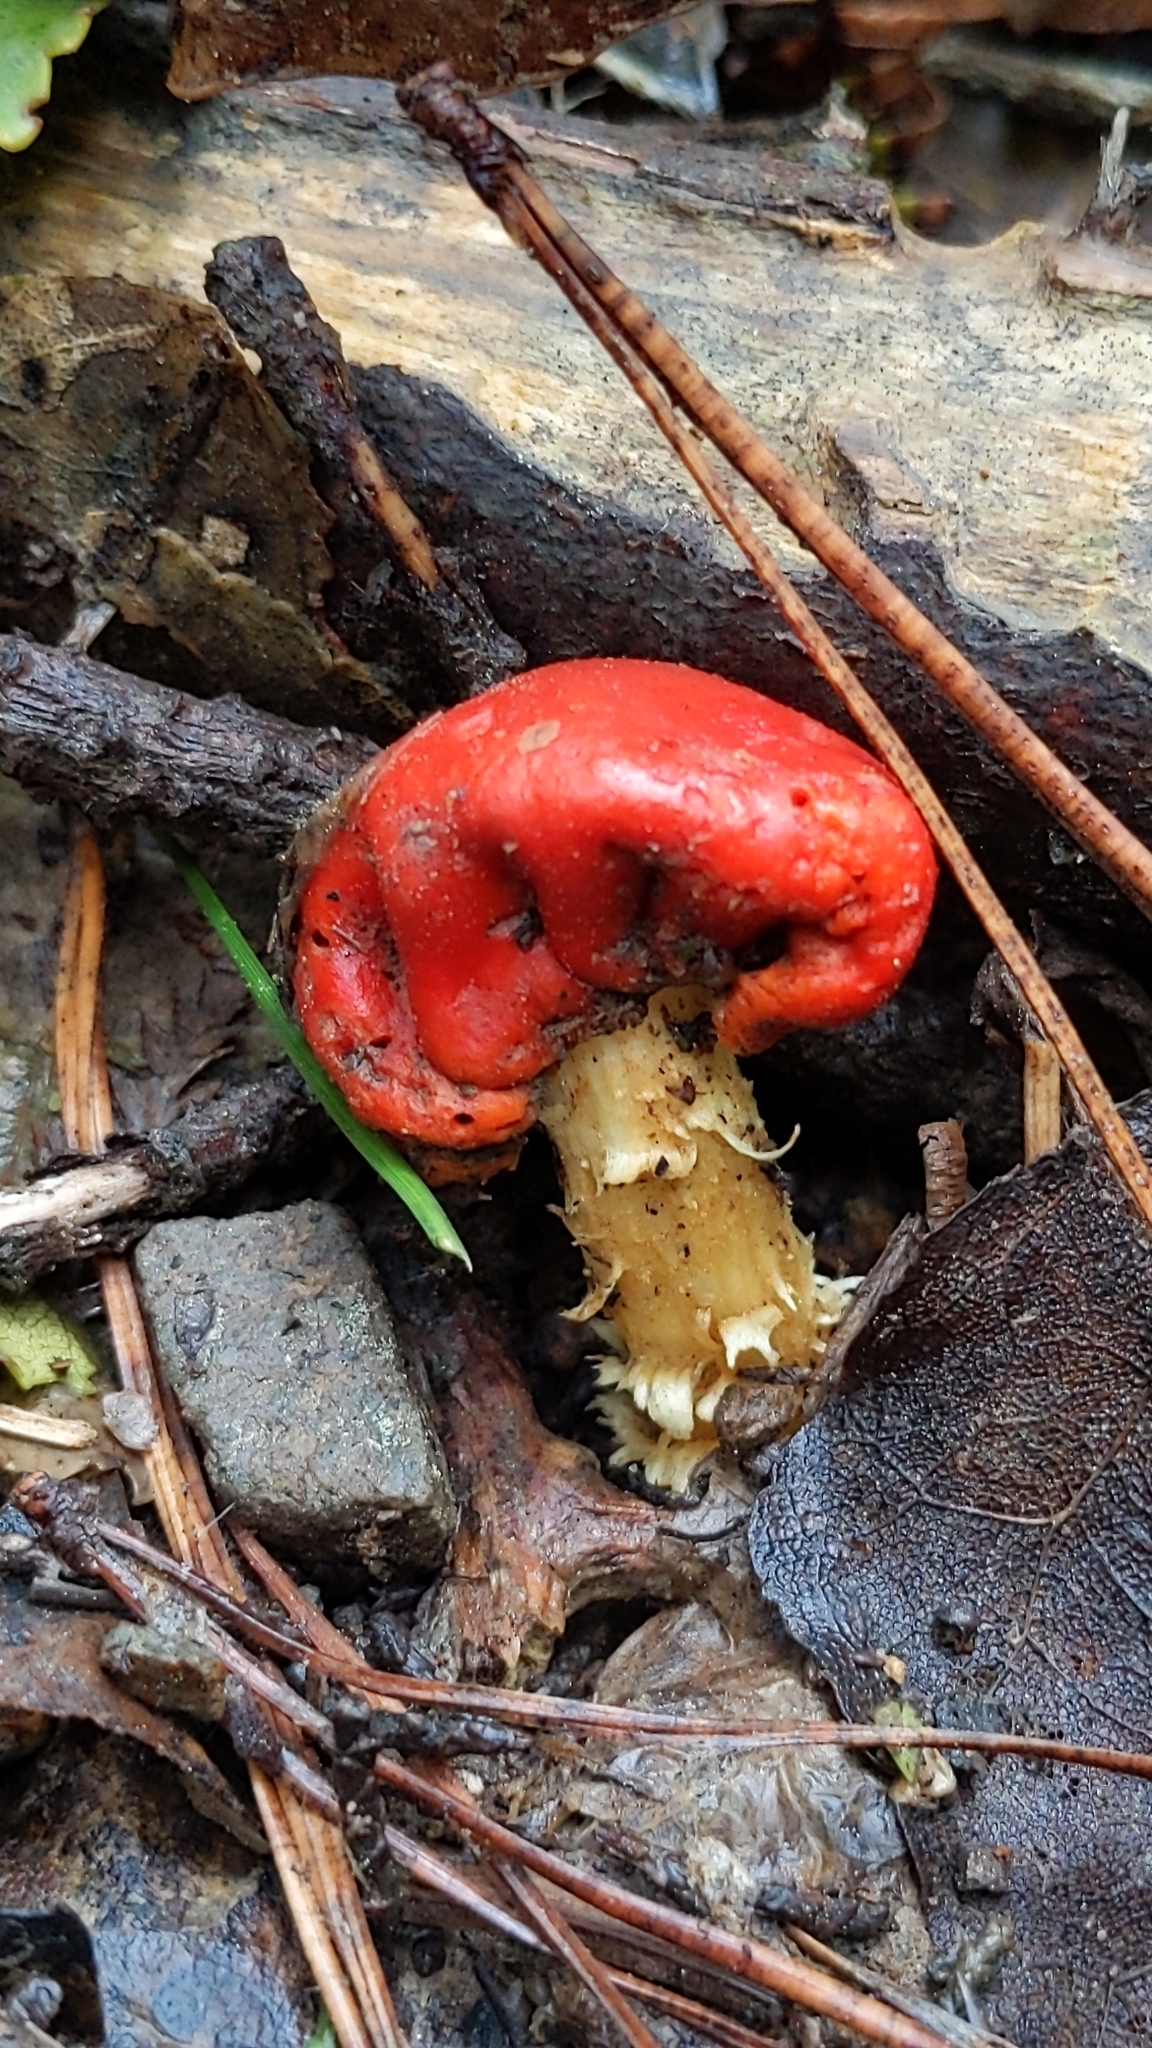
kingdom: Fungi
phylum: Basidiomycota
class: Agaricomycetes
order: Agaricales
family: Strophariaceae
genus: Leratiomyces
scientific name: Leratiomyces erythrocephalus
